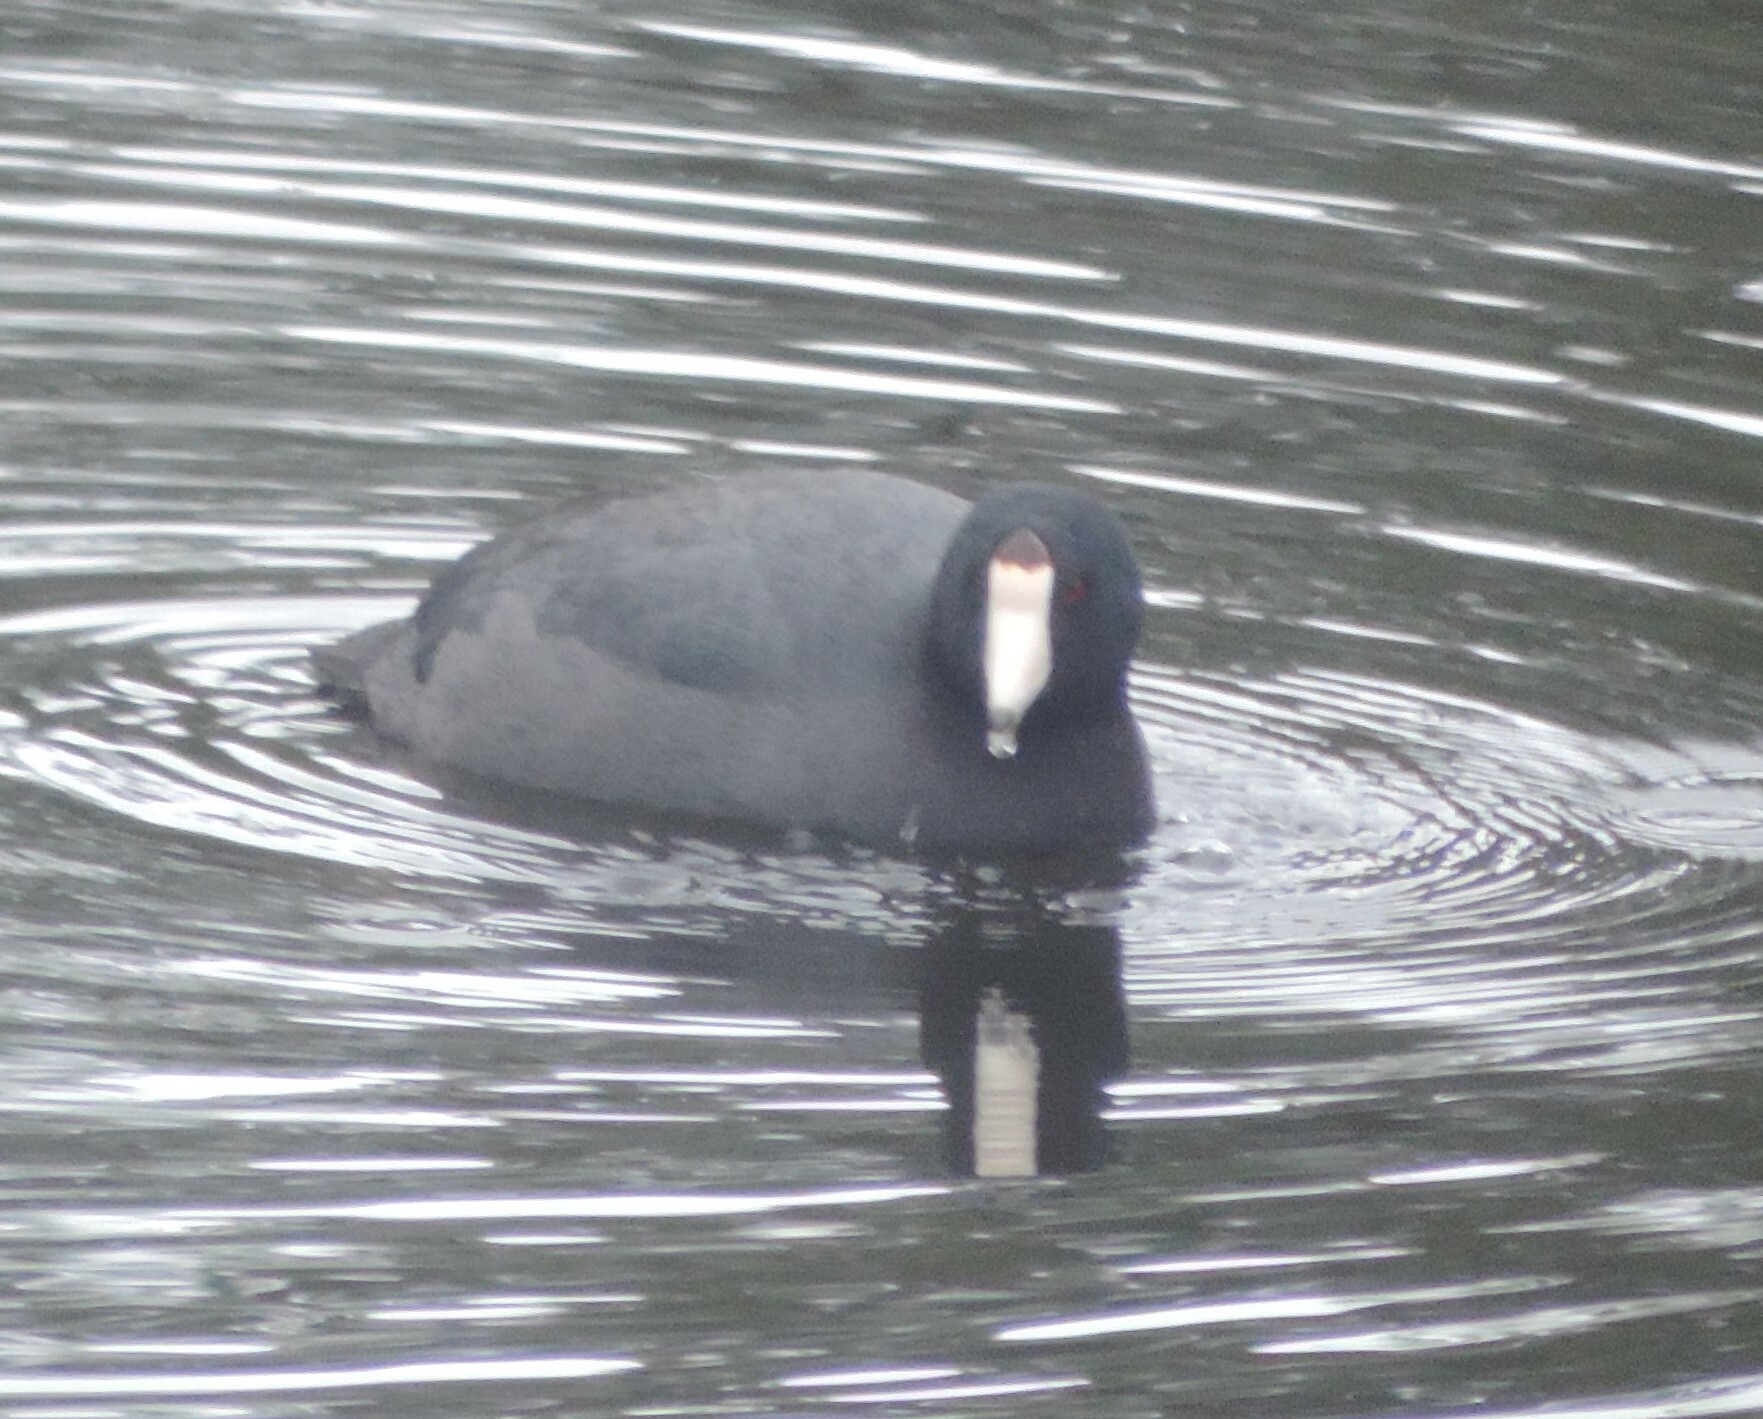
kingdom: Animalia
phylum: Chordata
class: Aves
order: Gruiformes
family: Rallidae
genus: Fulica
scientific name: Fulica americana
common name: American coot
